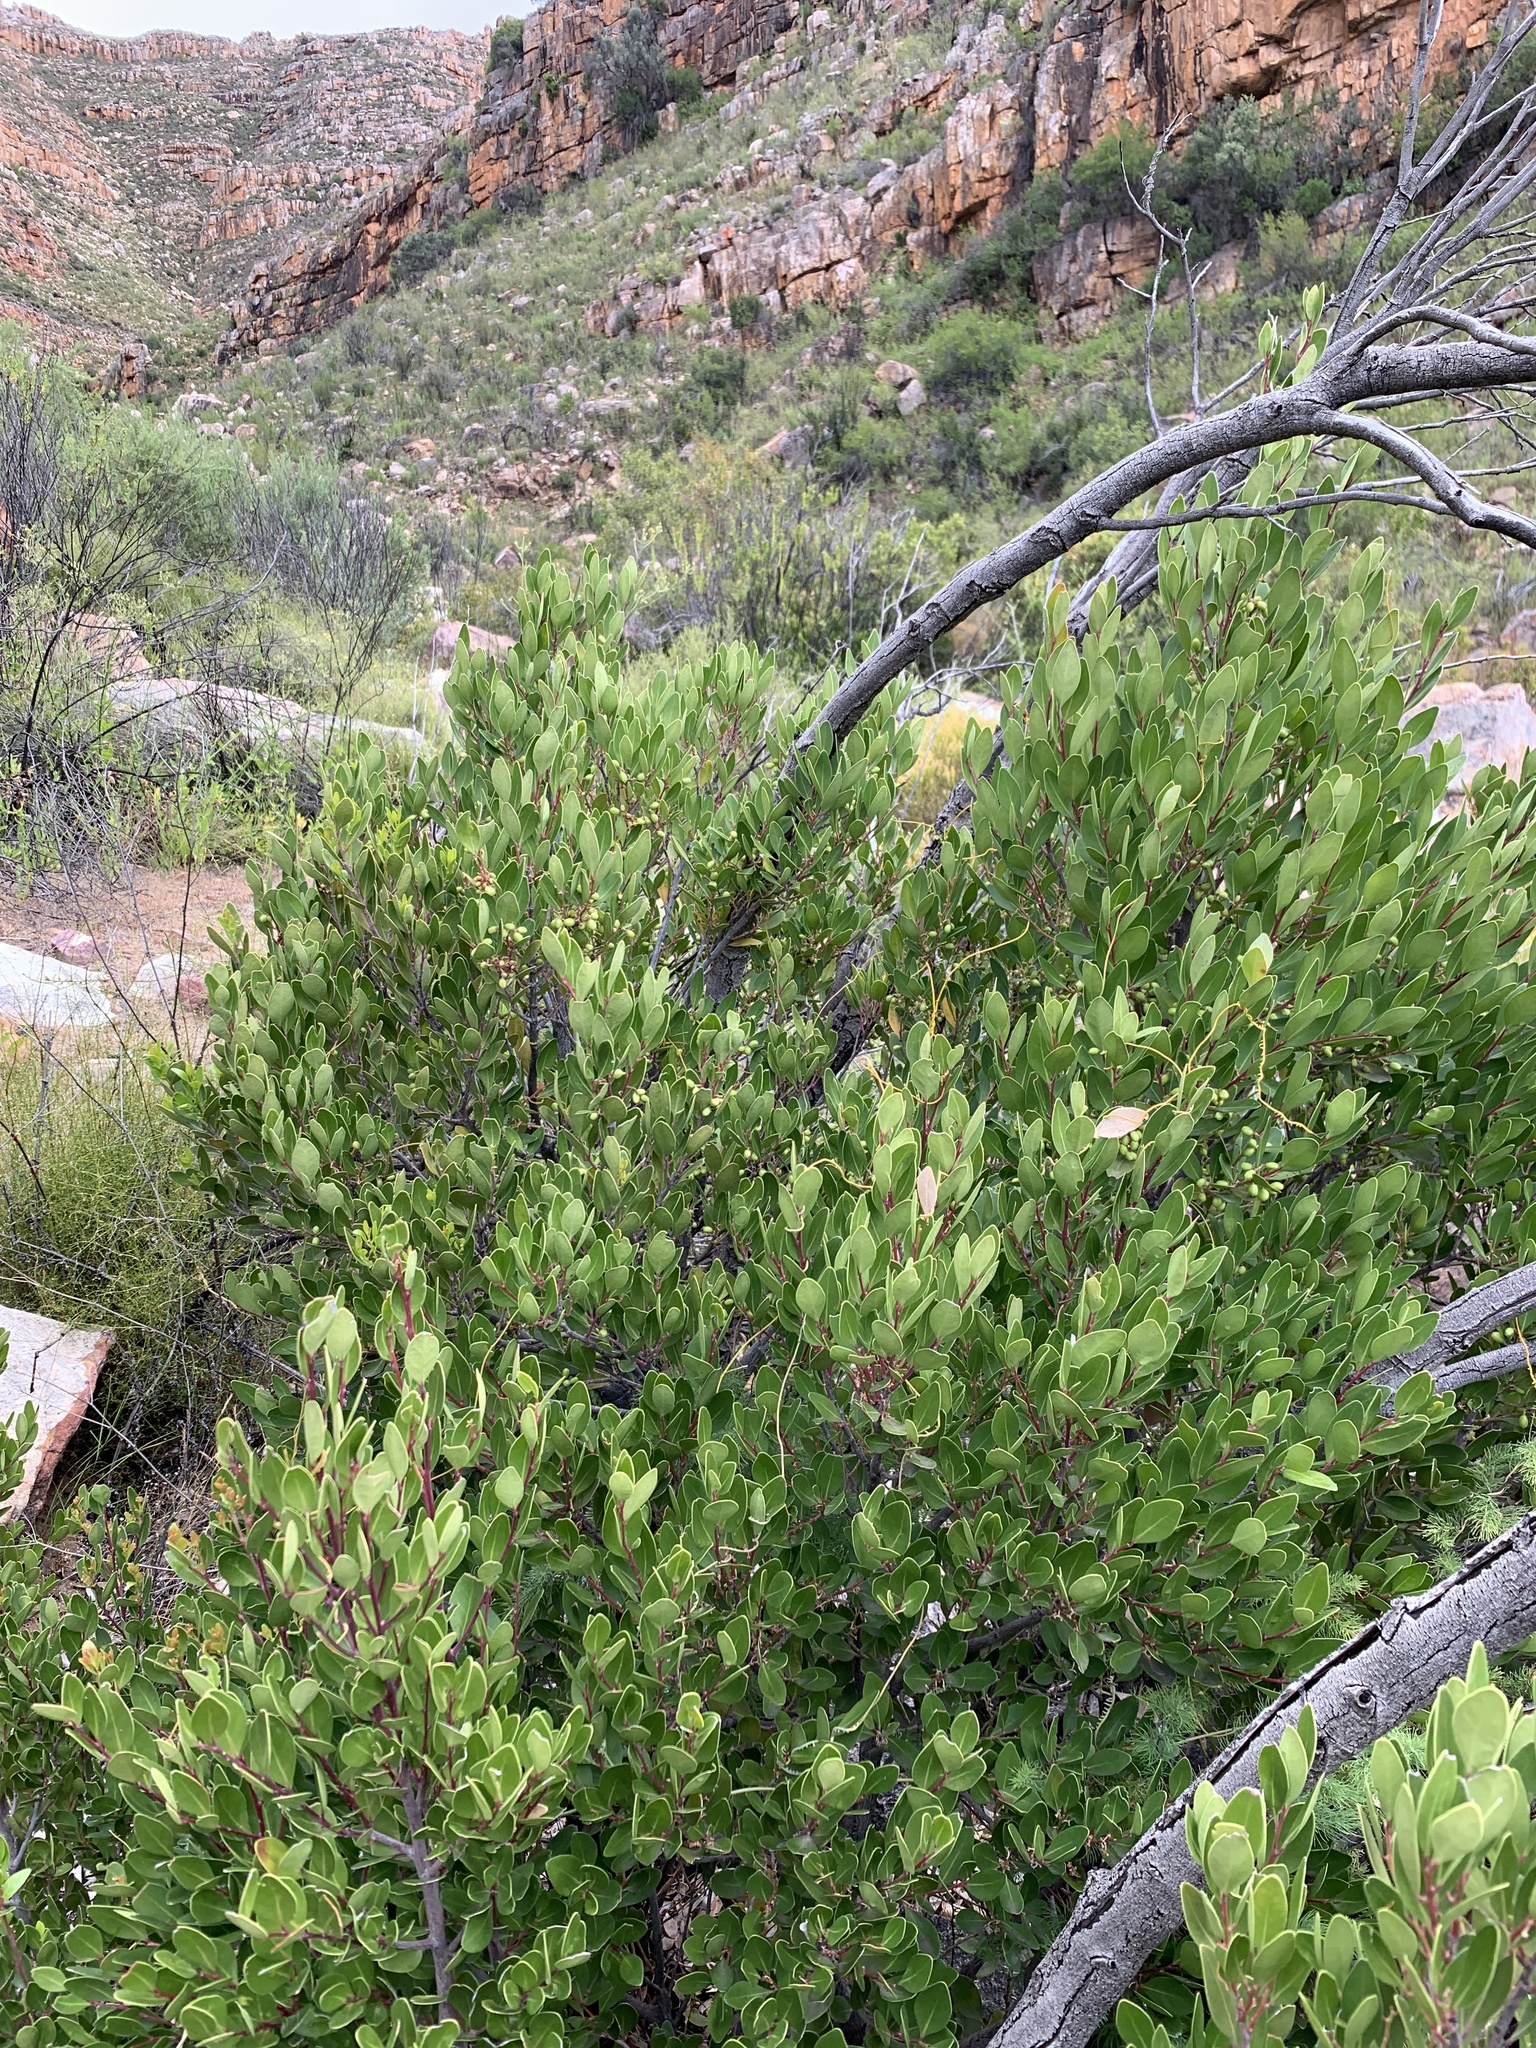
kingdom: Plantae
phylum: Tracheophyta
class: Magnoliopsida
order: Celastrales
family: Celastraceae
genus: Gymnosporia
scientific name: Gymnosporia laurina
